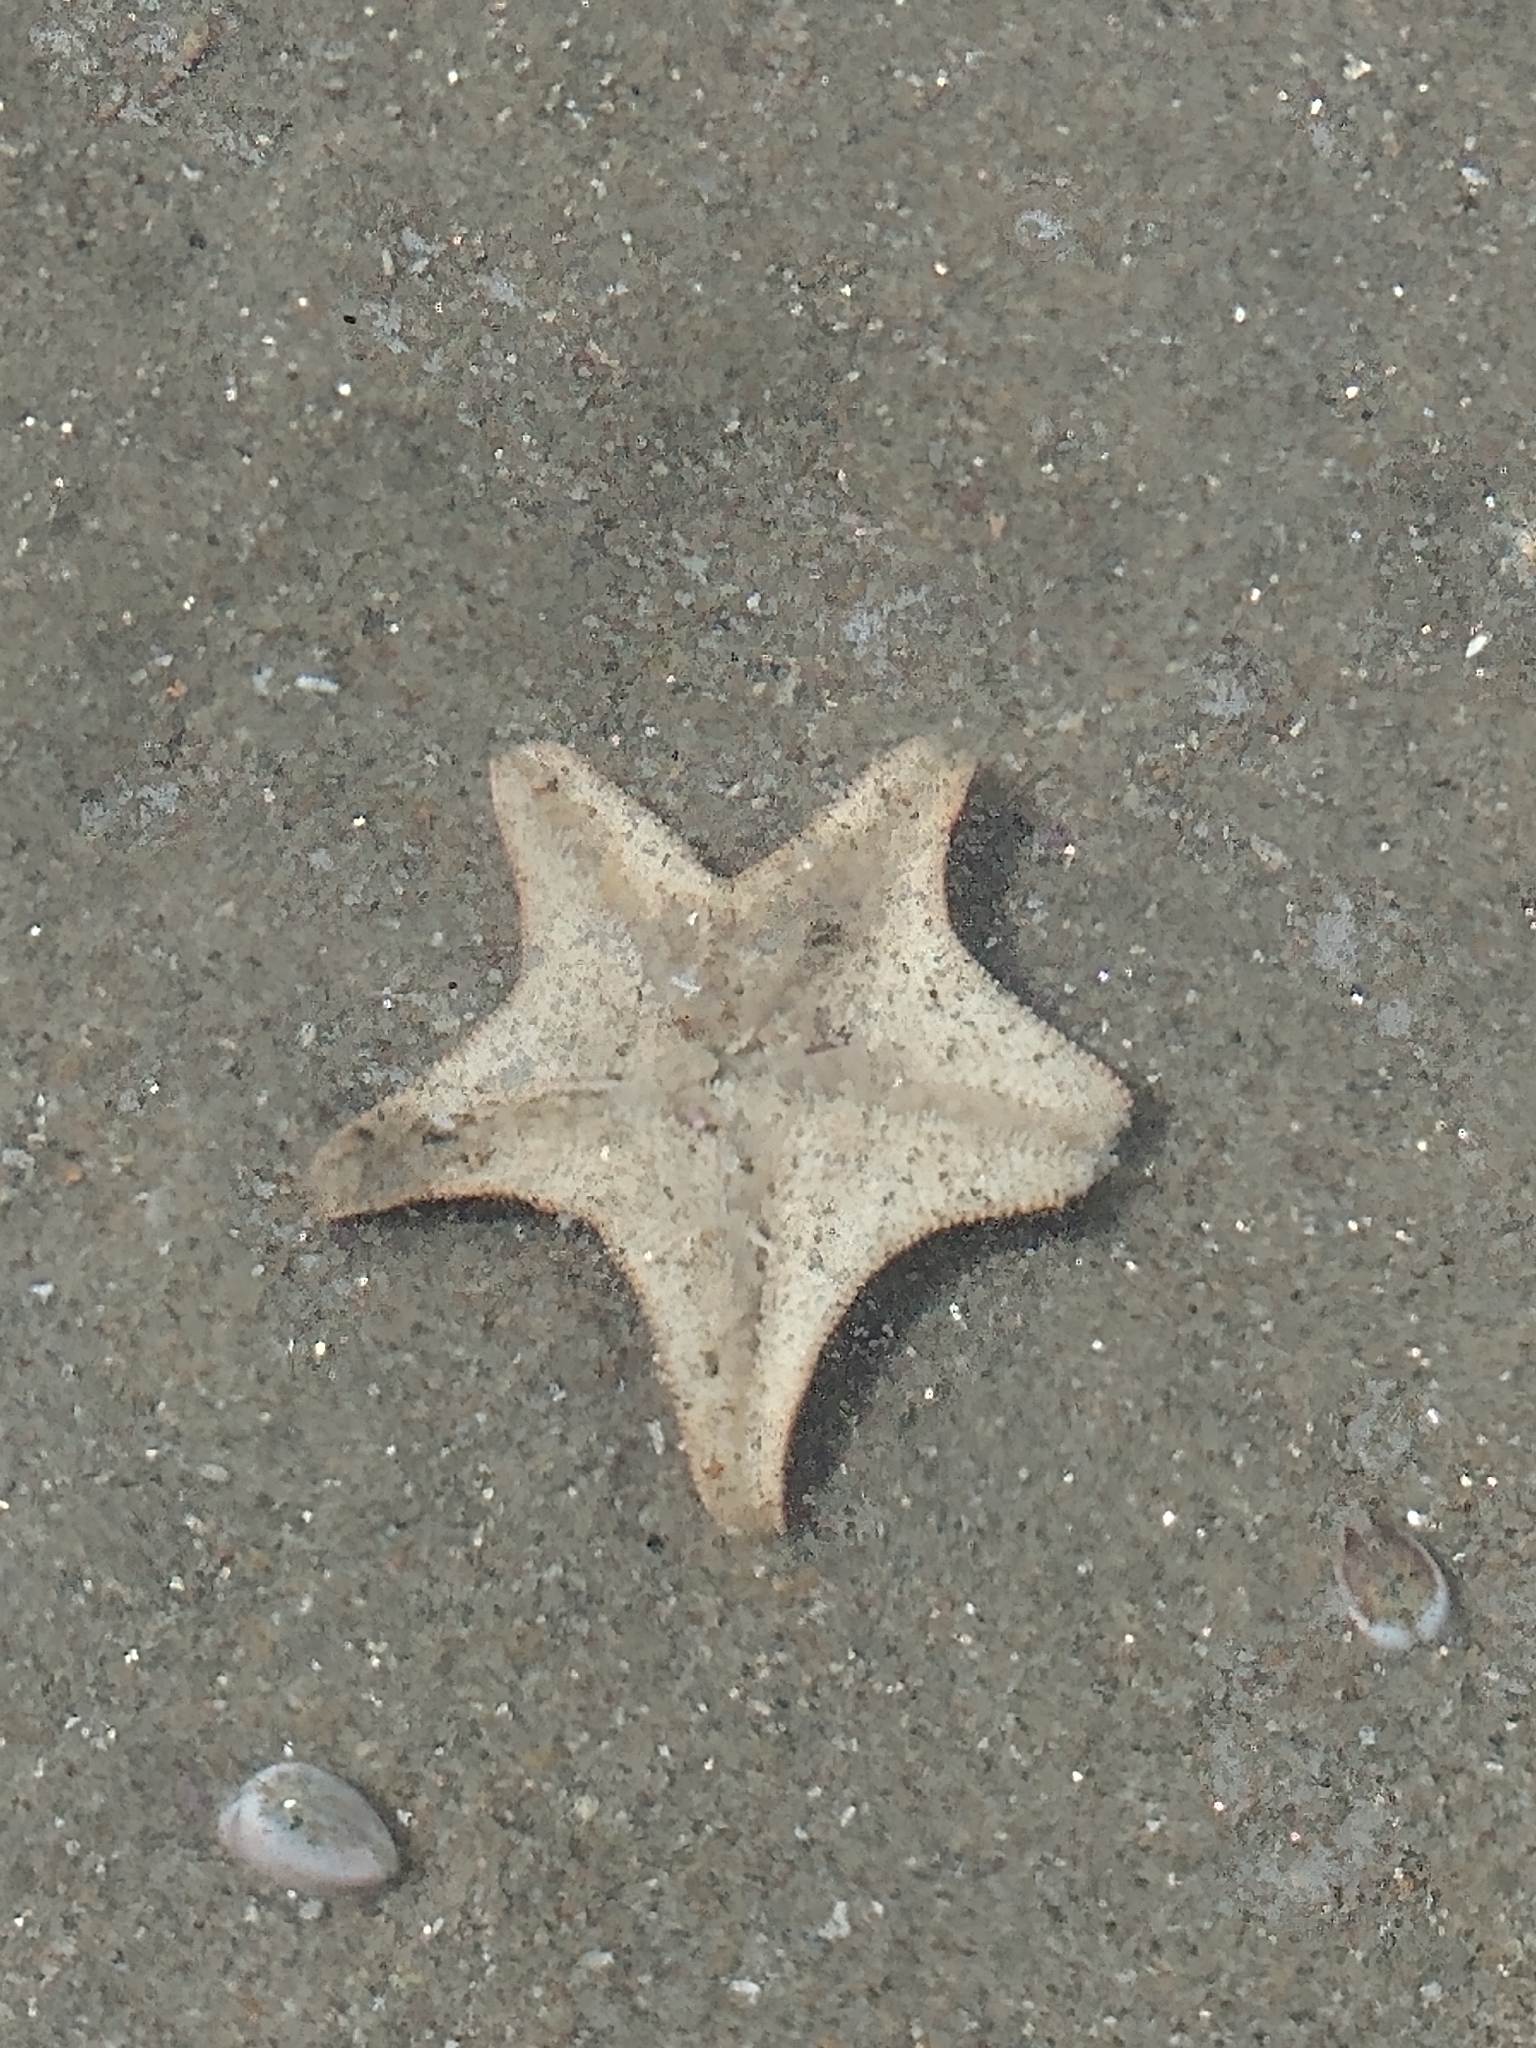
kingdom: Animalia
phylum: Echinodermata
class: Asteroidea
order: Valvatida
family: Asterinidae
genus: Patiria
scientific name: Patiria miniata
